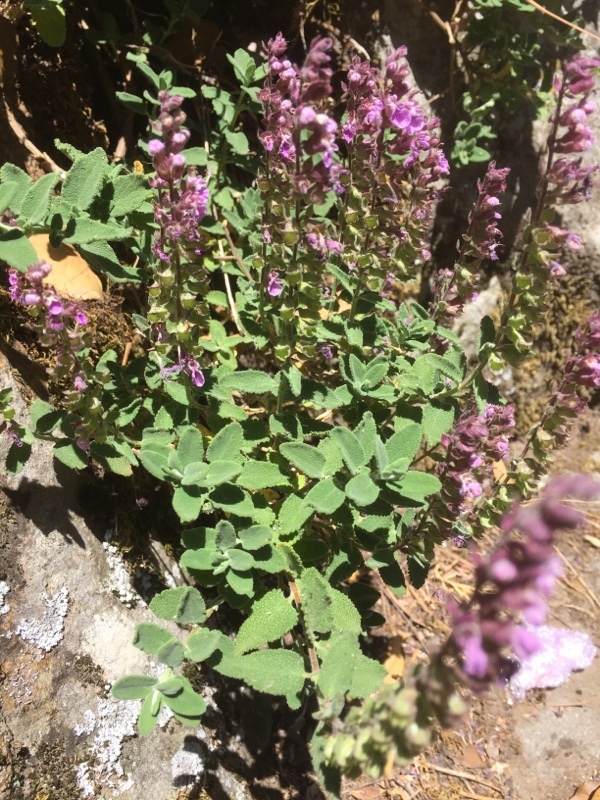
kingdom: Plantae
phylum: Tracheophyta
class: Magnoliopsida
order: Lamiales
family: Lamiaceae
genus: Teucrium
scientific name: Teucrium salviastrum
